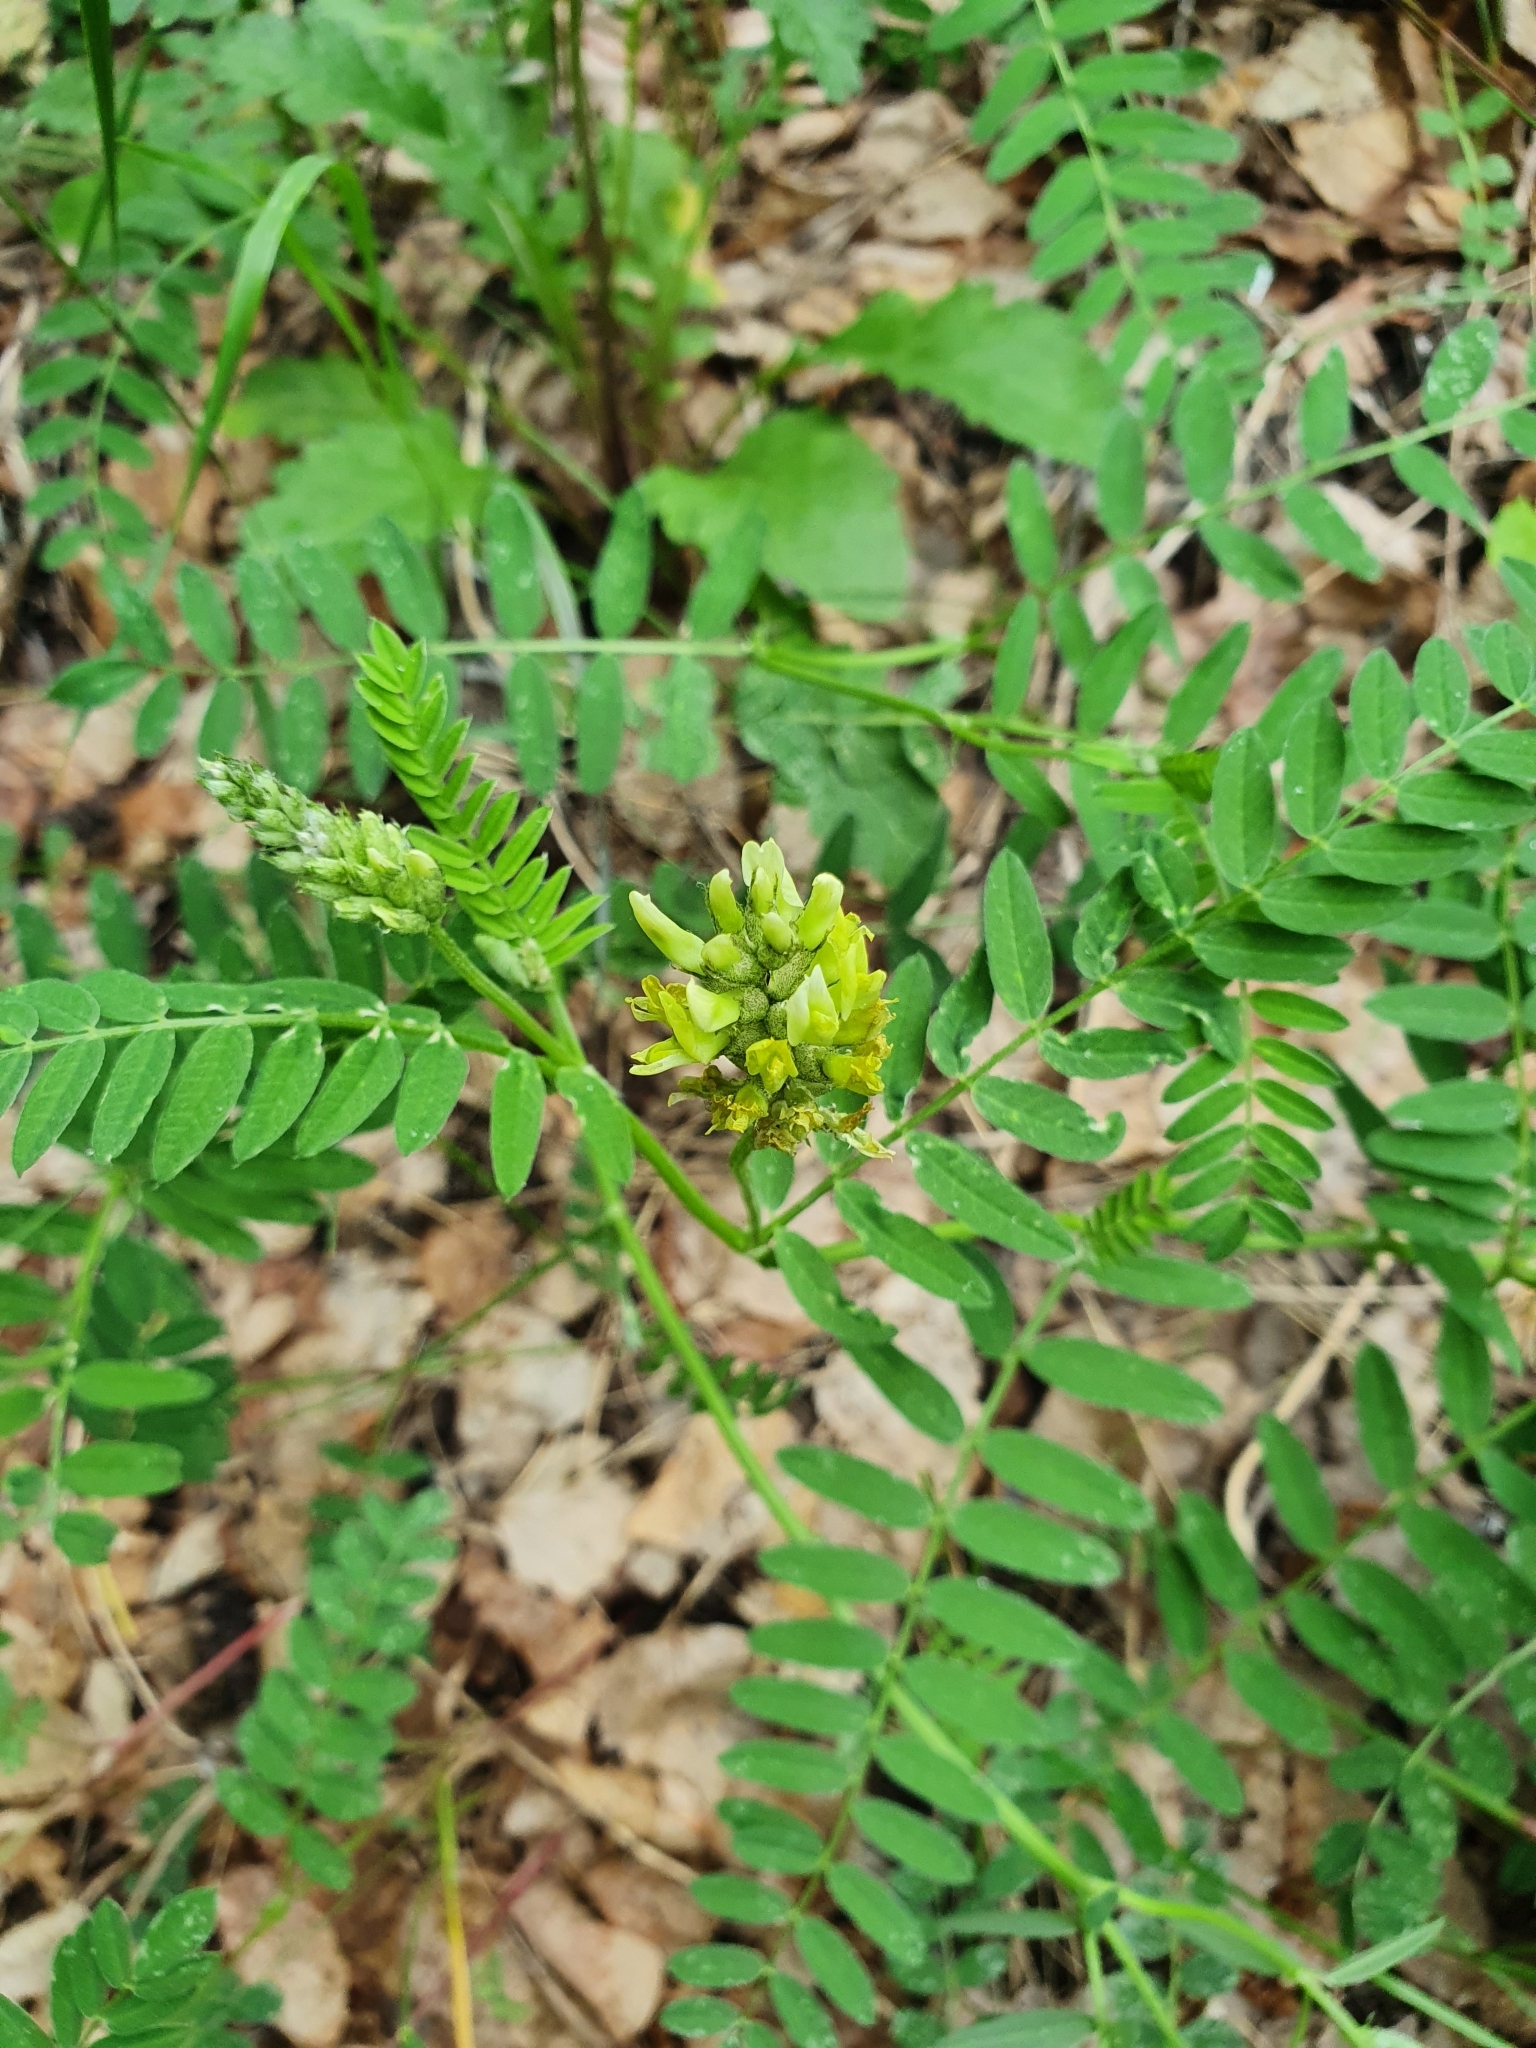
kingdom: Plantae
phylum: Tracheophyta
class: Magnoliopsida
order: Fabales
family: Fabaceae
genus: Astragalus
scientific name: Astragalus cicer
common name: Chick-pea milk-vetch
